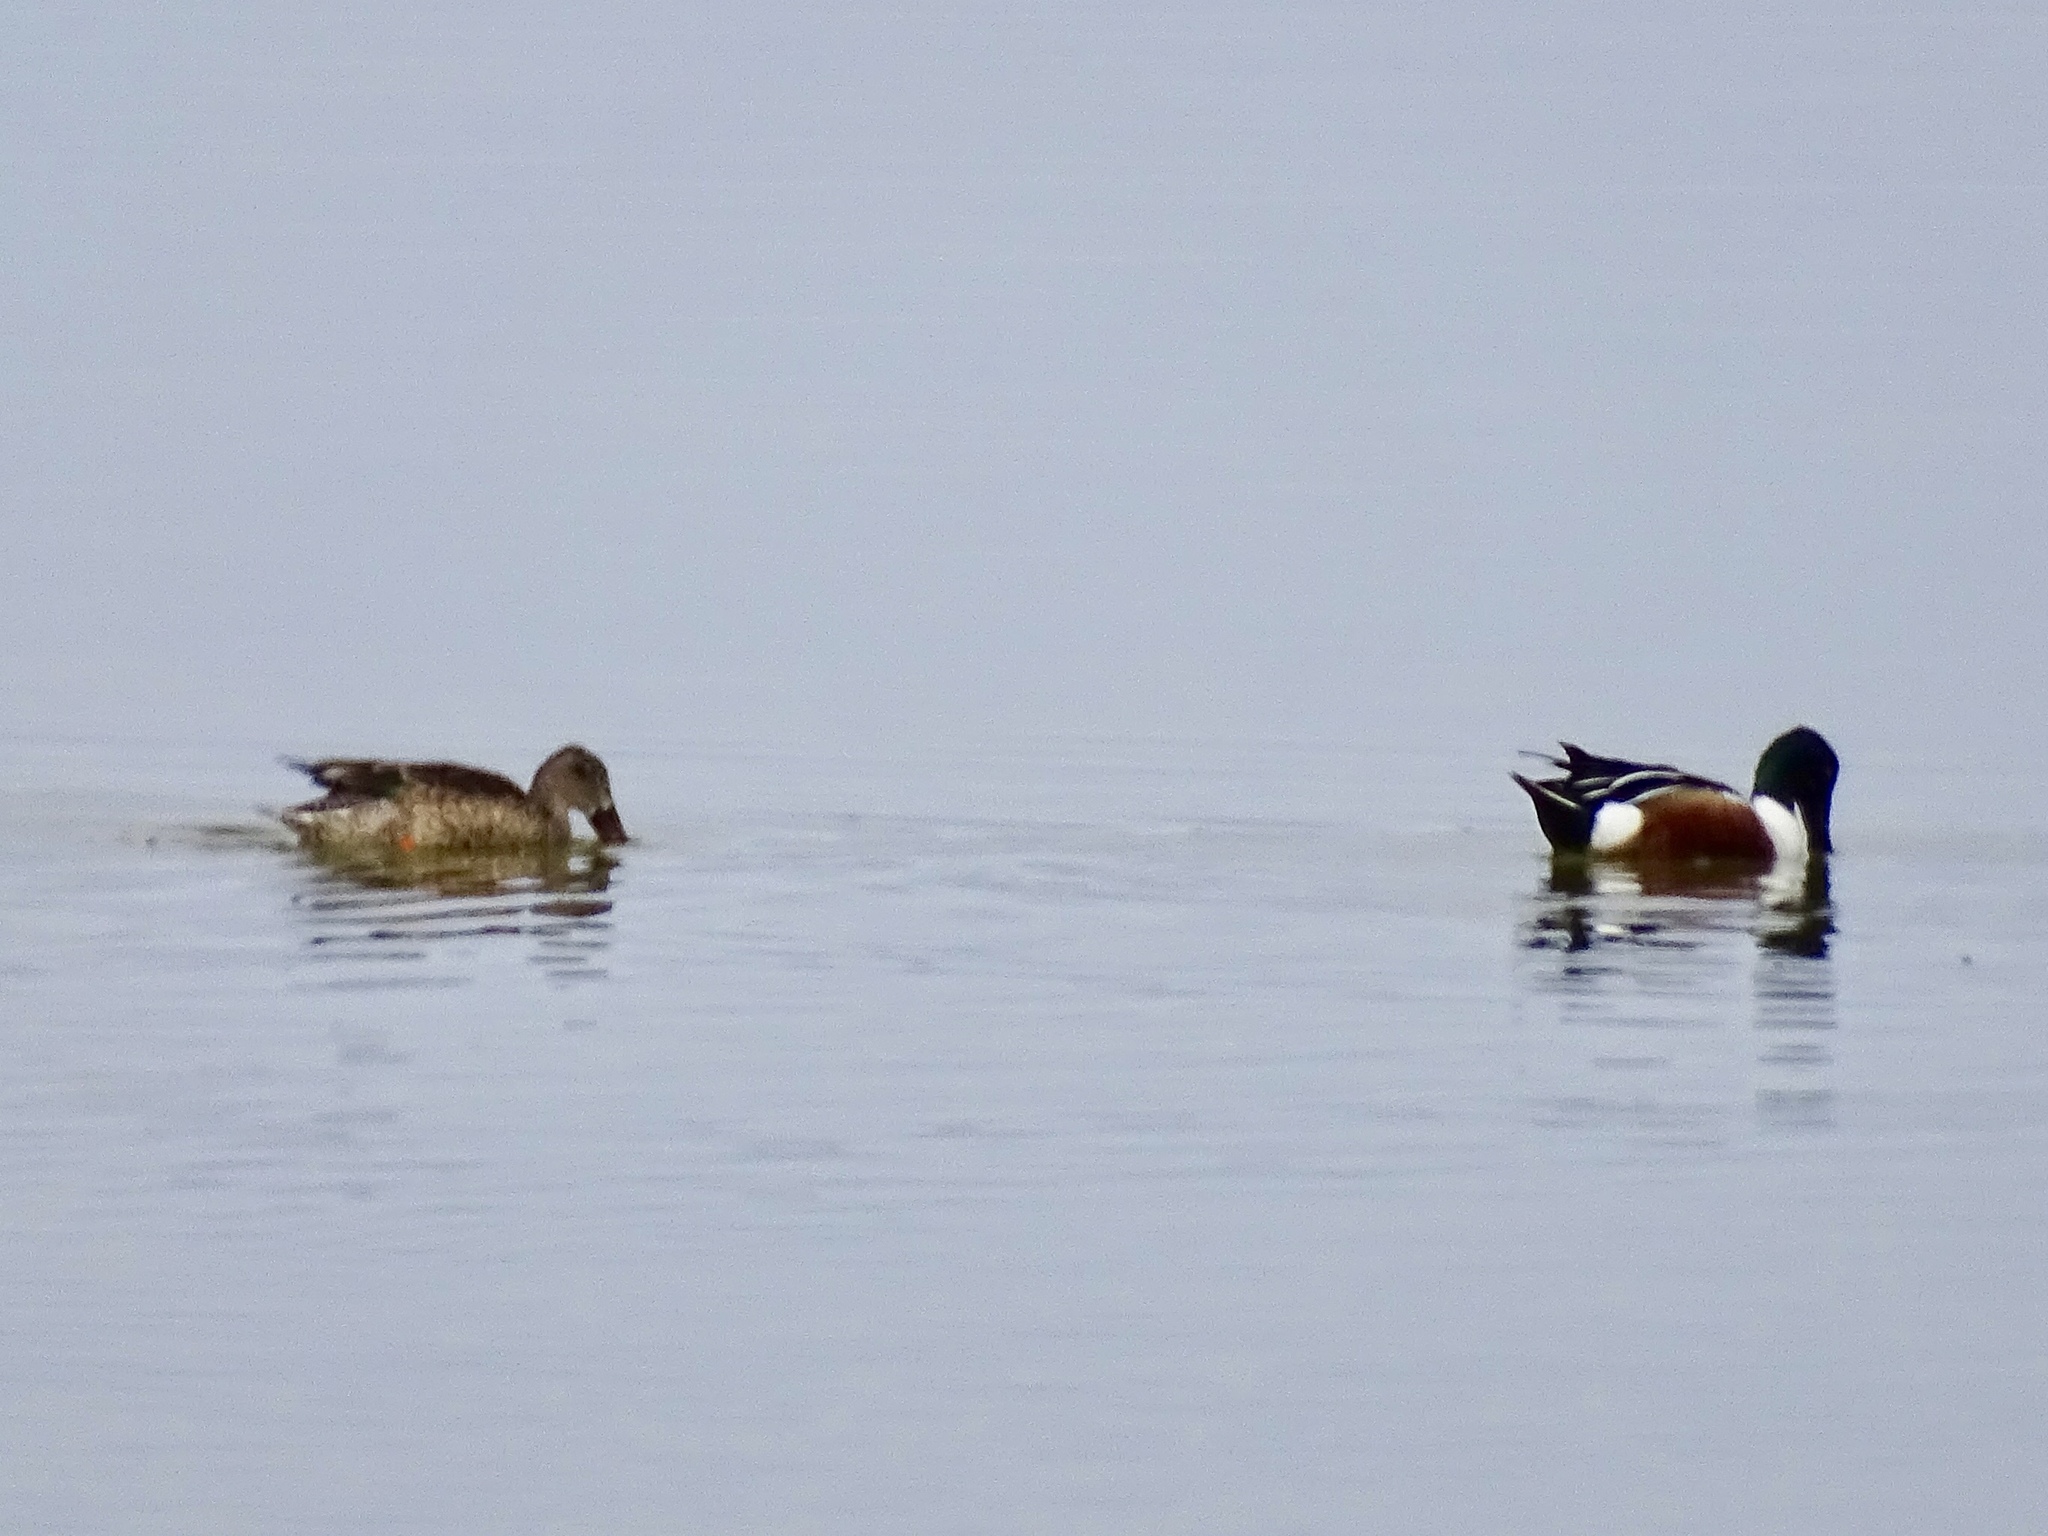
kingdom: Animalia
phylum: Chordata
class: Aves
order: Anseriformes
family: Anatidae
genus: Spatula
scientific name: Spatula clypeata
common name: Northern shoveler
